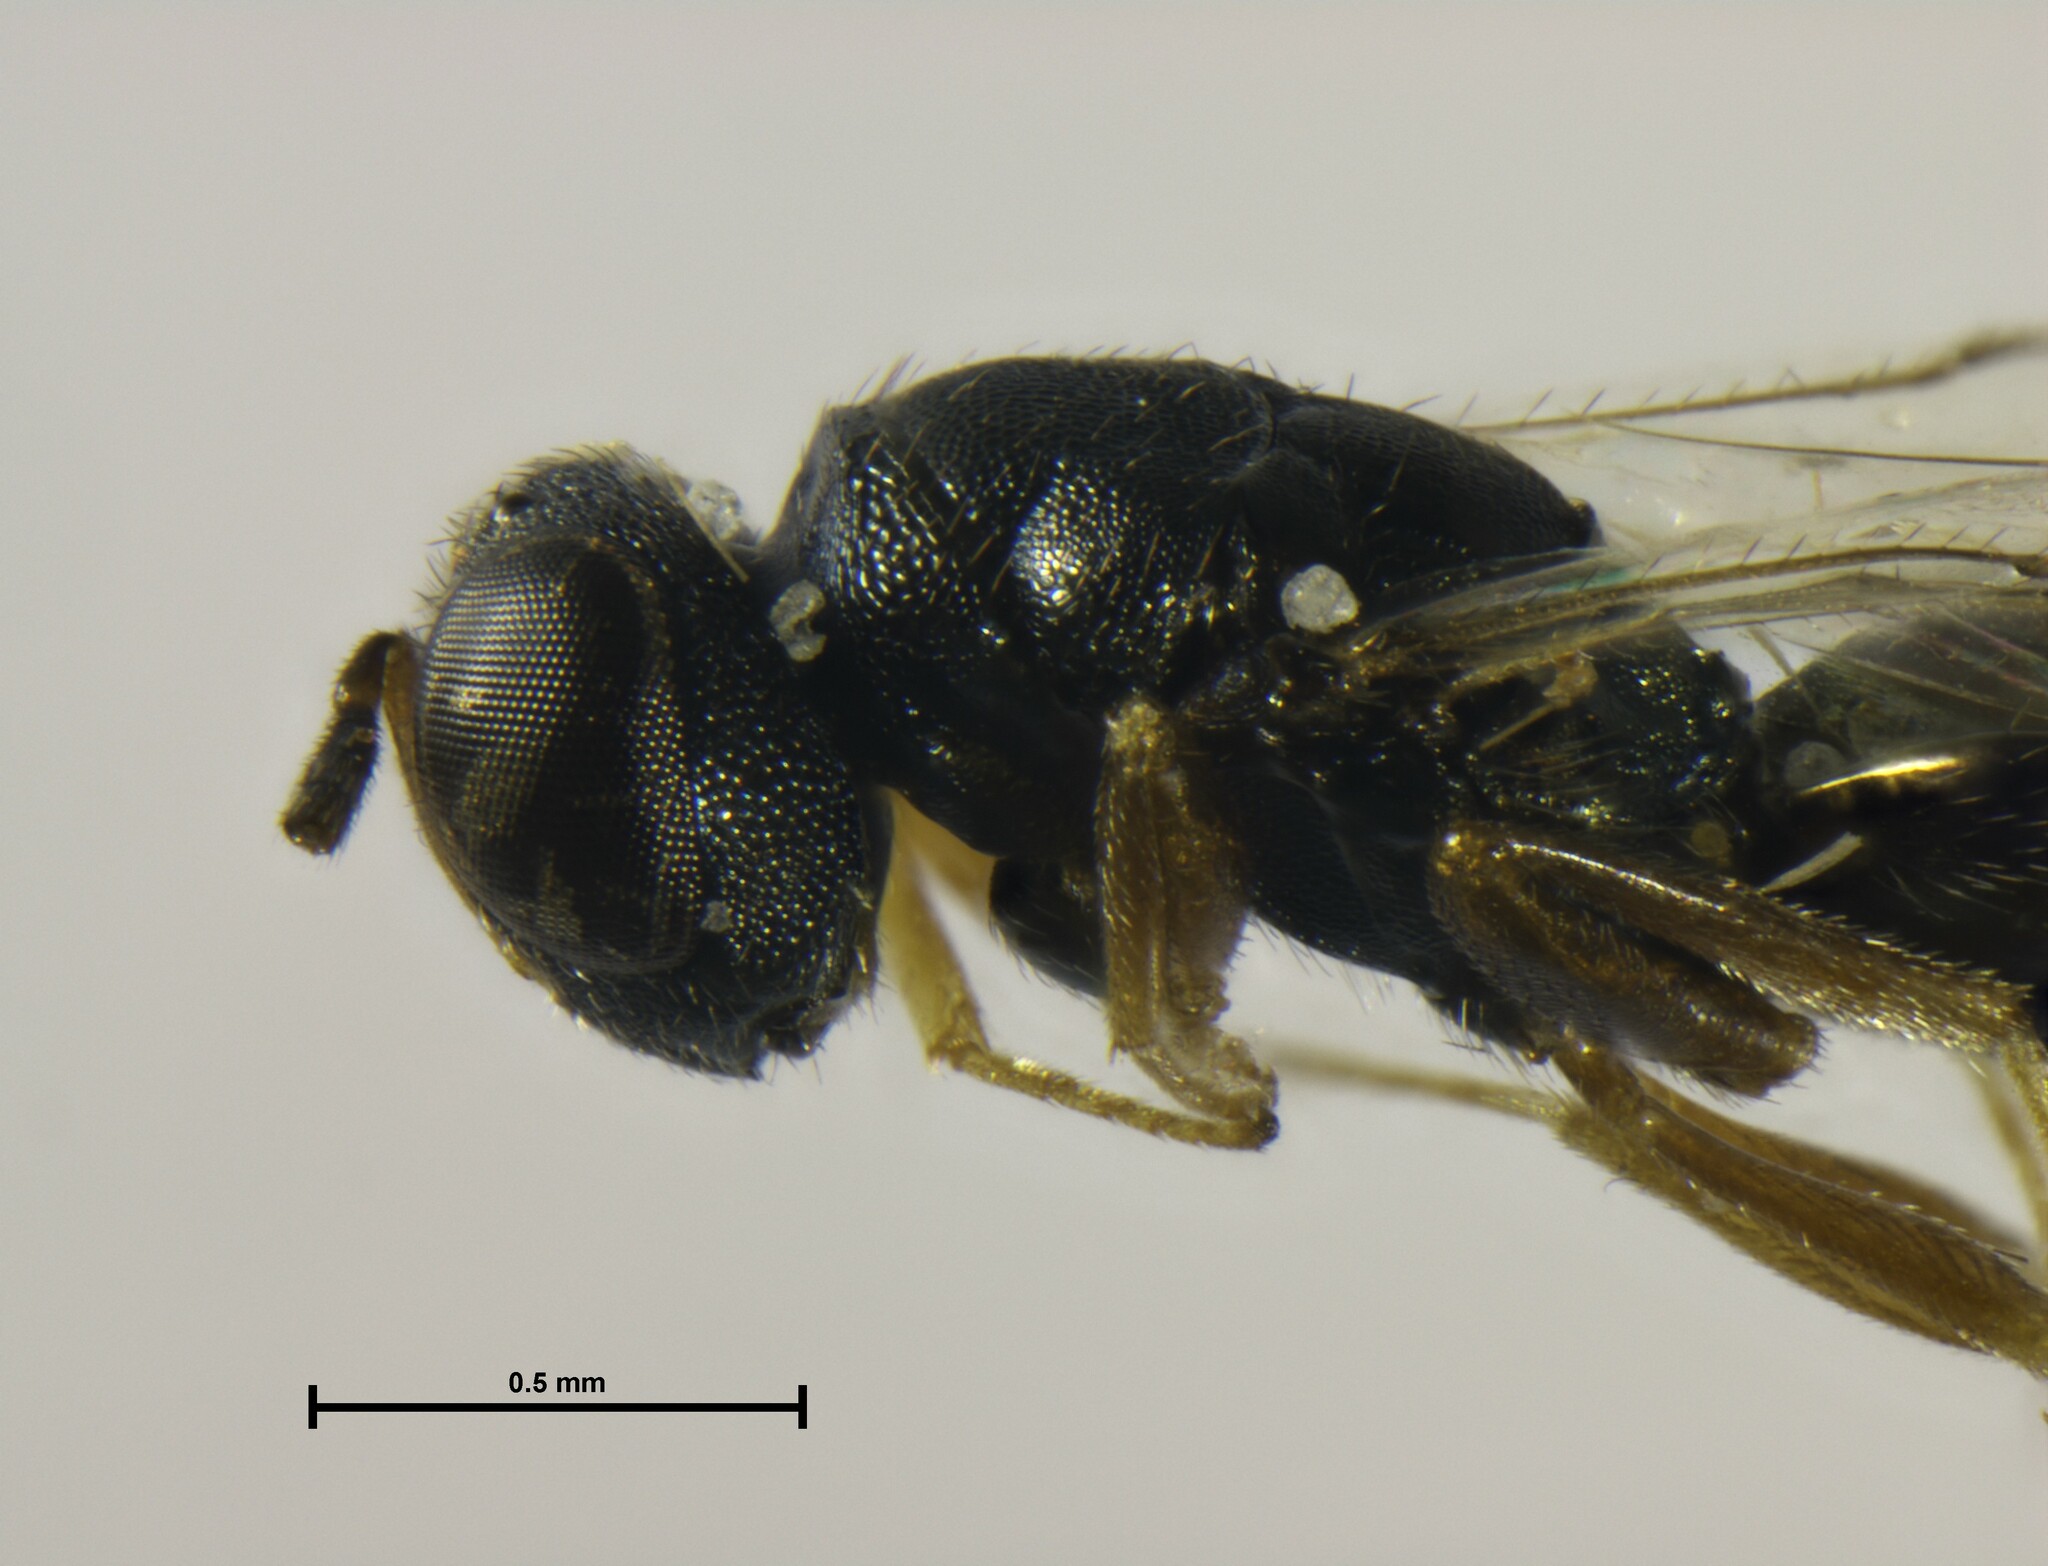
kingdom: Animalia
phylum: Arthropoda
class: Insecta
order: Hymenoptera
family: Pteromalidae
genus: Dibrachys
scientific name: Dibrachys microgastri
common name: Wasp
